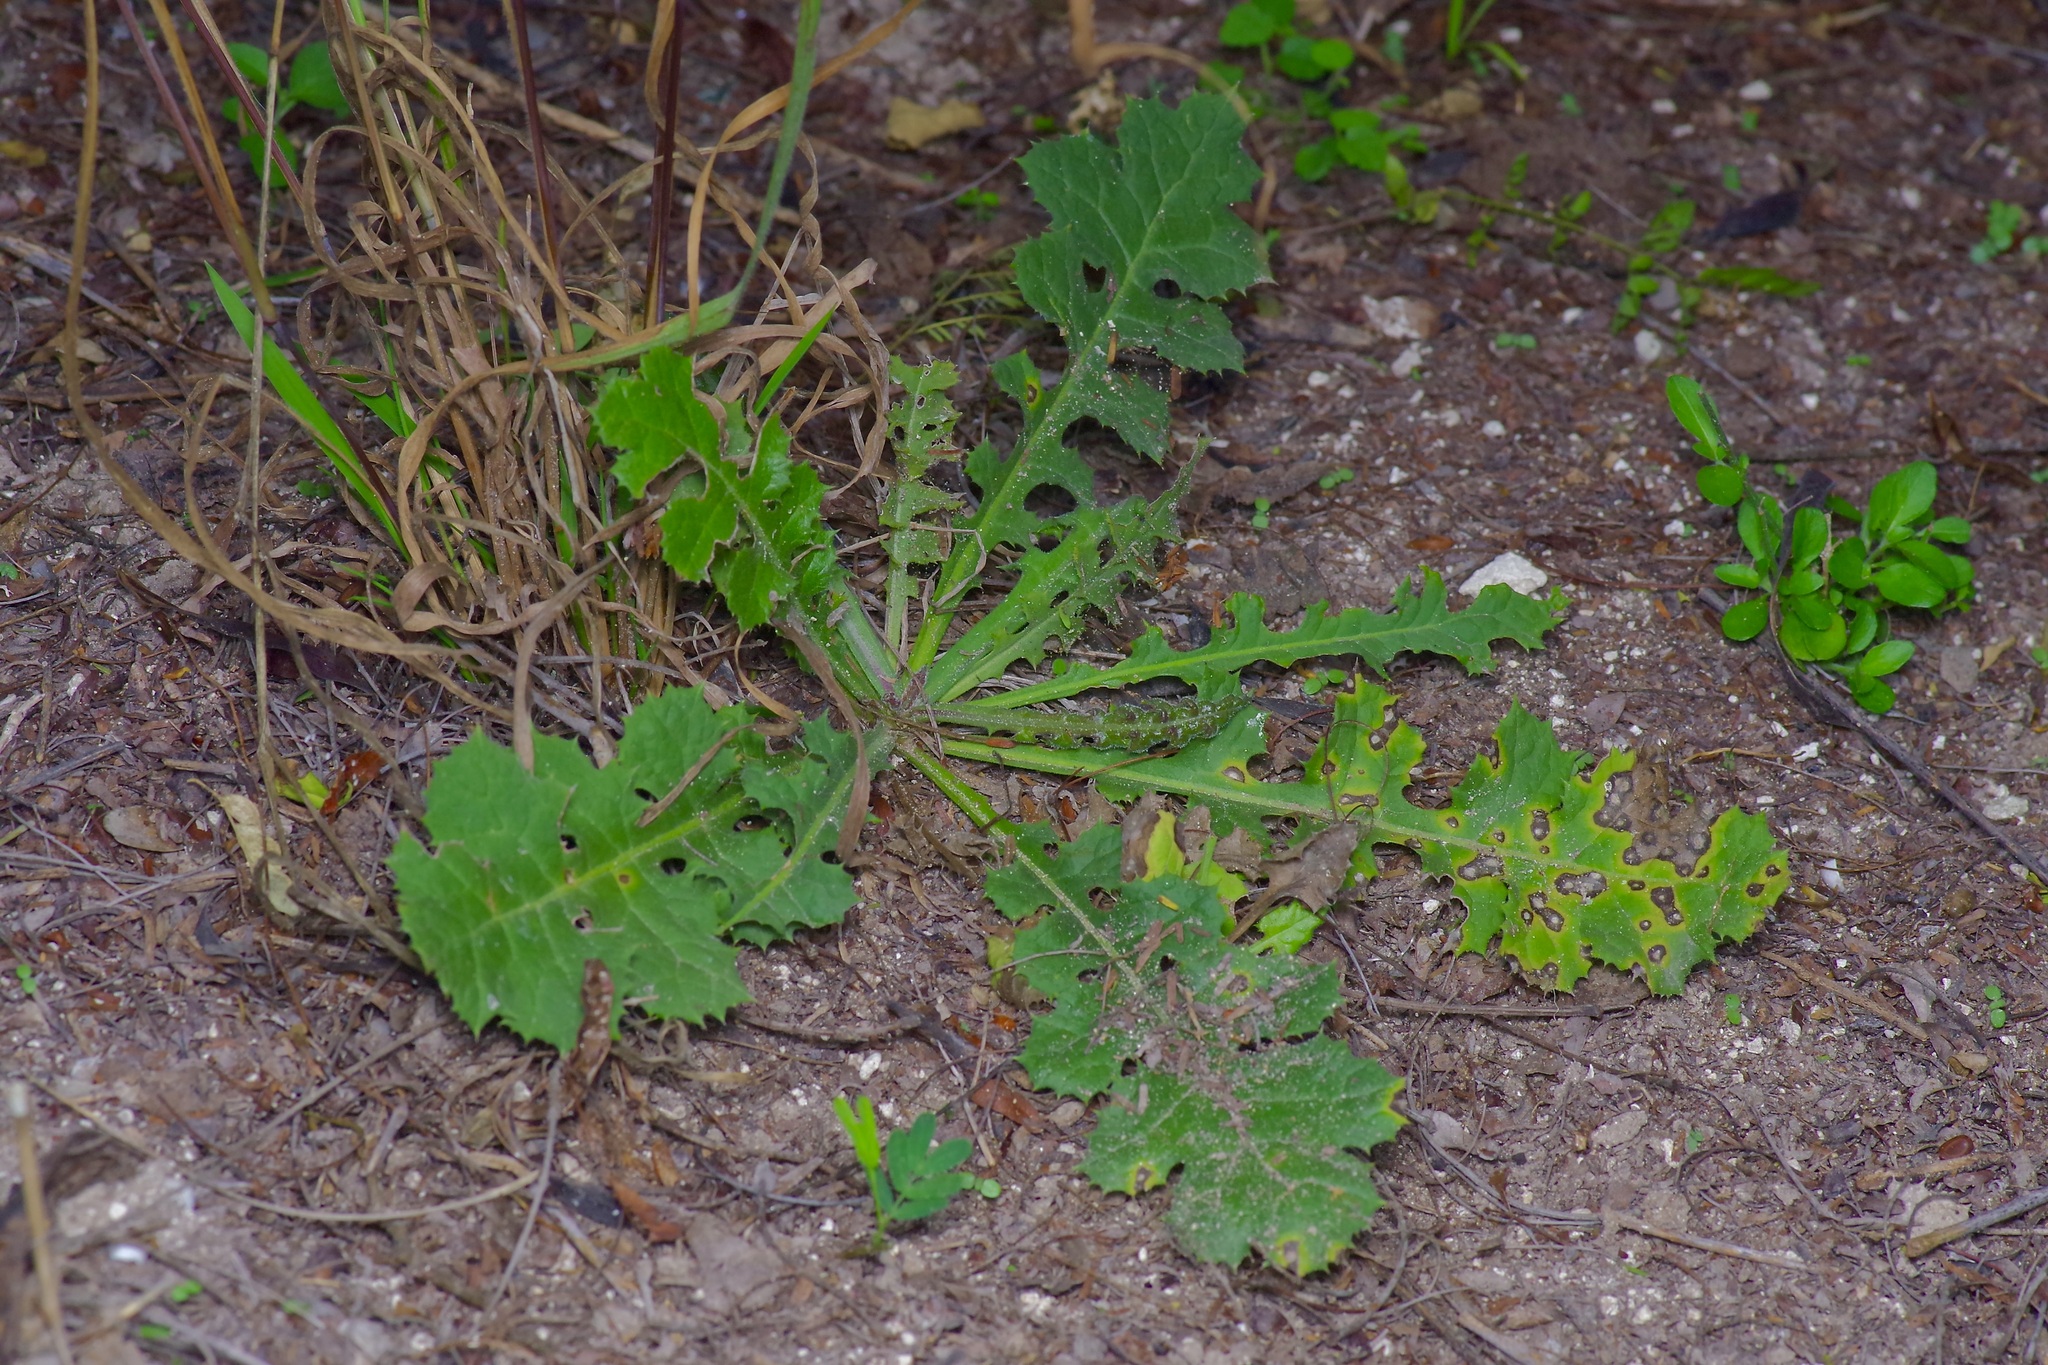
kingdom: Plantae
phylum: Tracheophyta
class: Magnoliopsida
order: Asterales
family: Asteraceae
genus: Acourtia
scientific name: Acourtia runcinata
